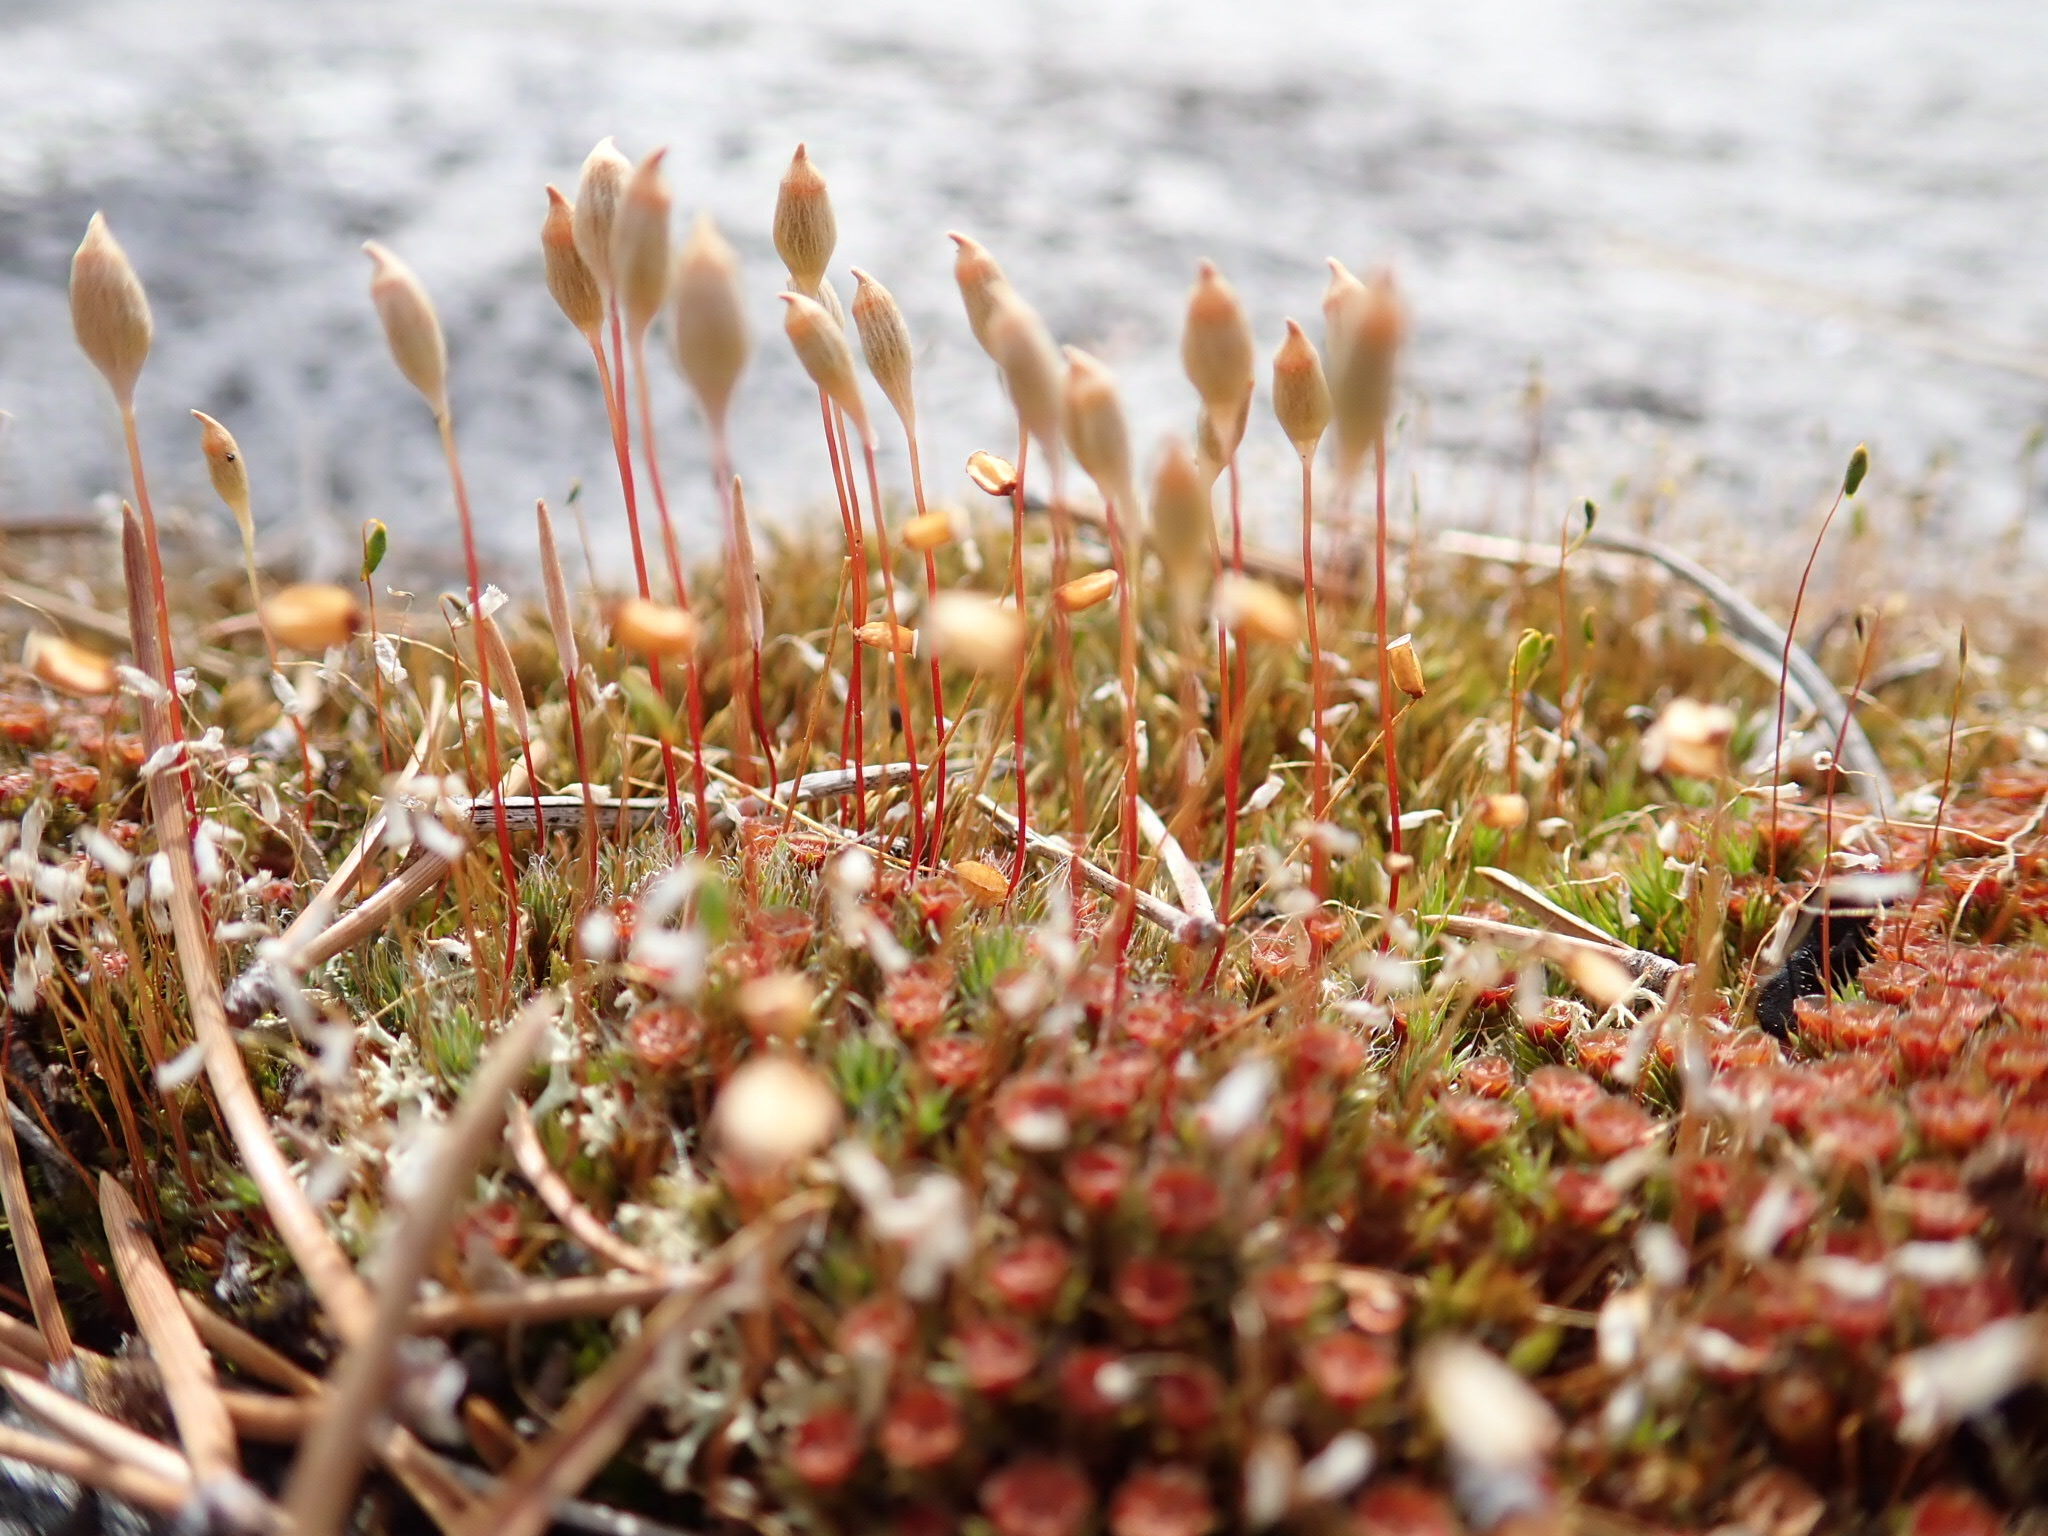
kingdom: Plantae
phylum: Bryophyta
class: Polytrichopsida
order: Polytrichales
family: Polytrichaceae
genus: Polytrichum
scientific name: Polytrichum piliferum
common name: Bristly haircap
